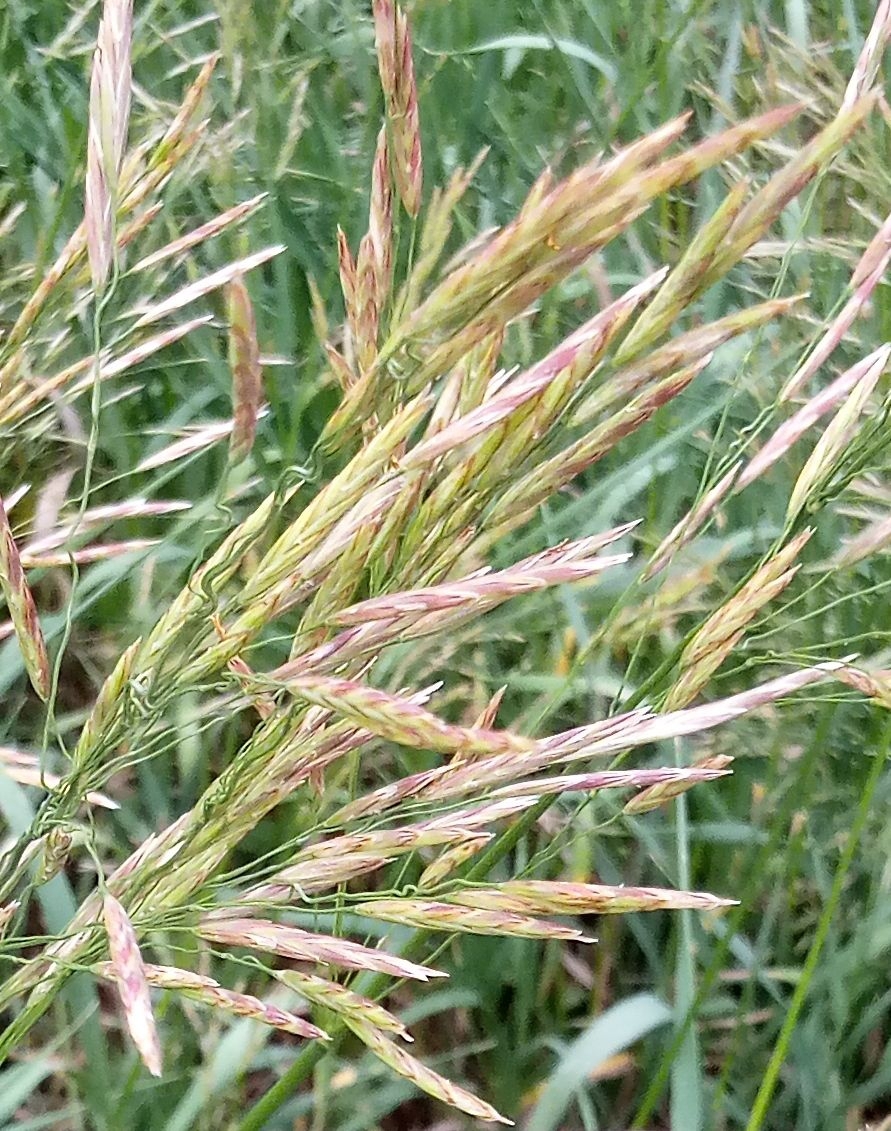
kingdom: Plantae
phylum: Tracheophyta
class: Liliopsida
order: Poales
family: Poaceae
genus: Bromus
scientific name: Bromus inermis
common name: Smooth brome
